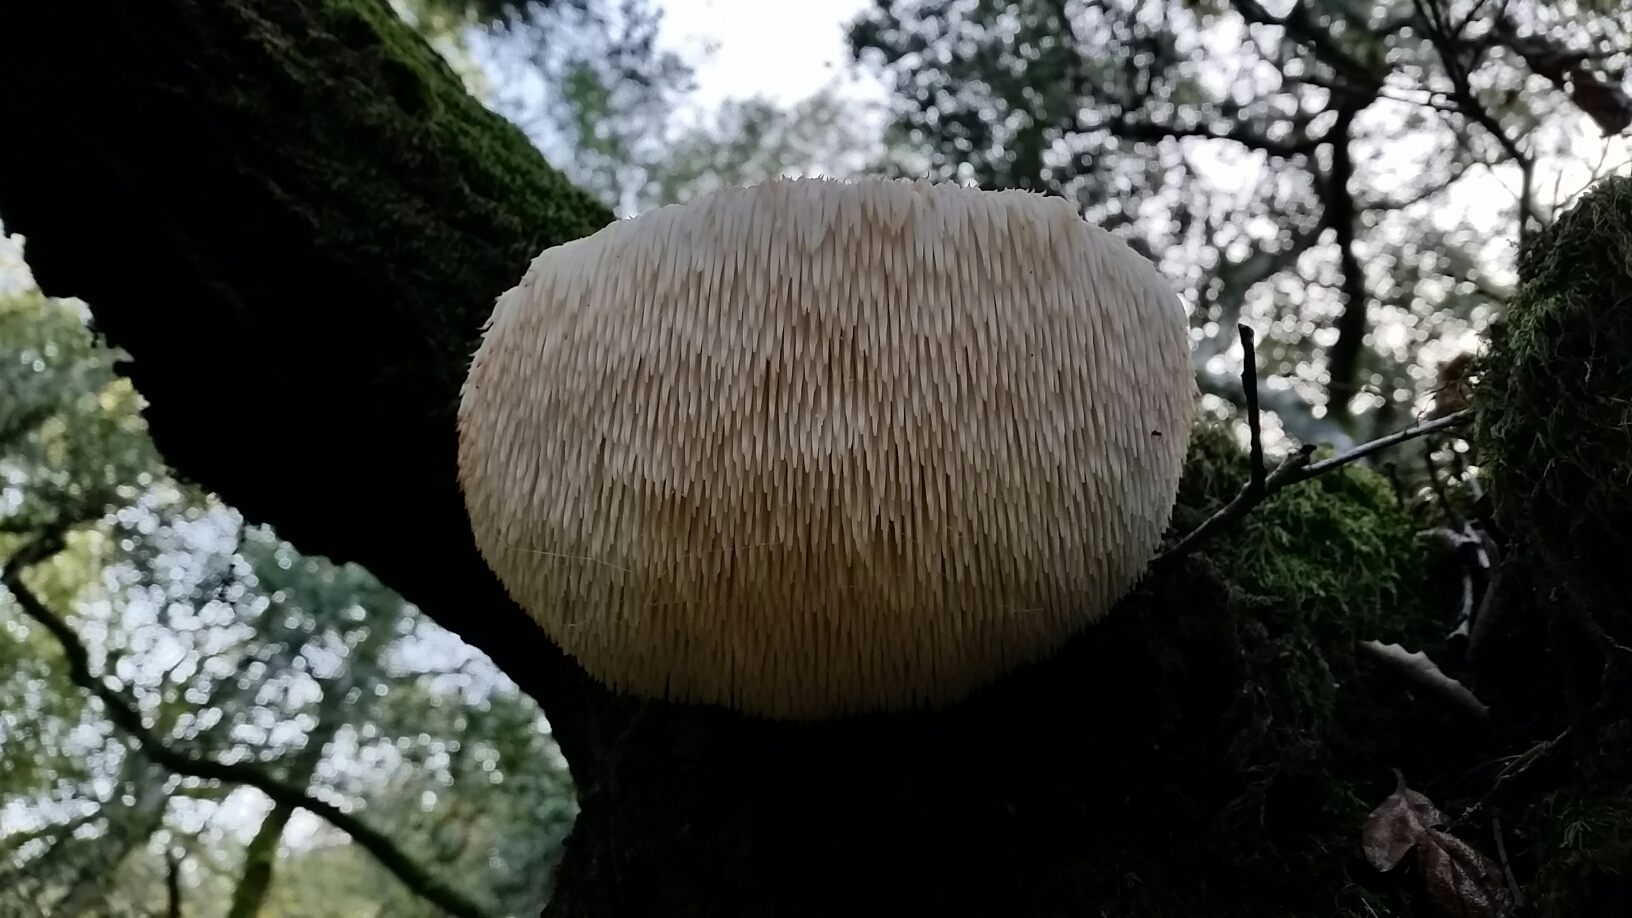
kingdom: Fungi
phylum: Basidiomycota
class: Agaricomycetes
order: Russulales
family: Hericiaceae
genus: Hericium
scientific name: Hericium erinaceus
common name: Bearded tooth
